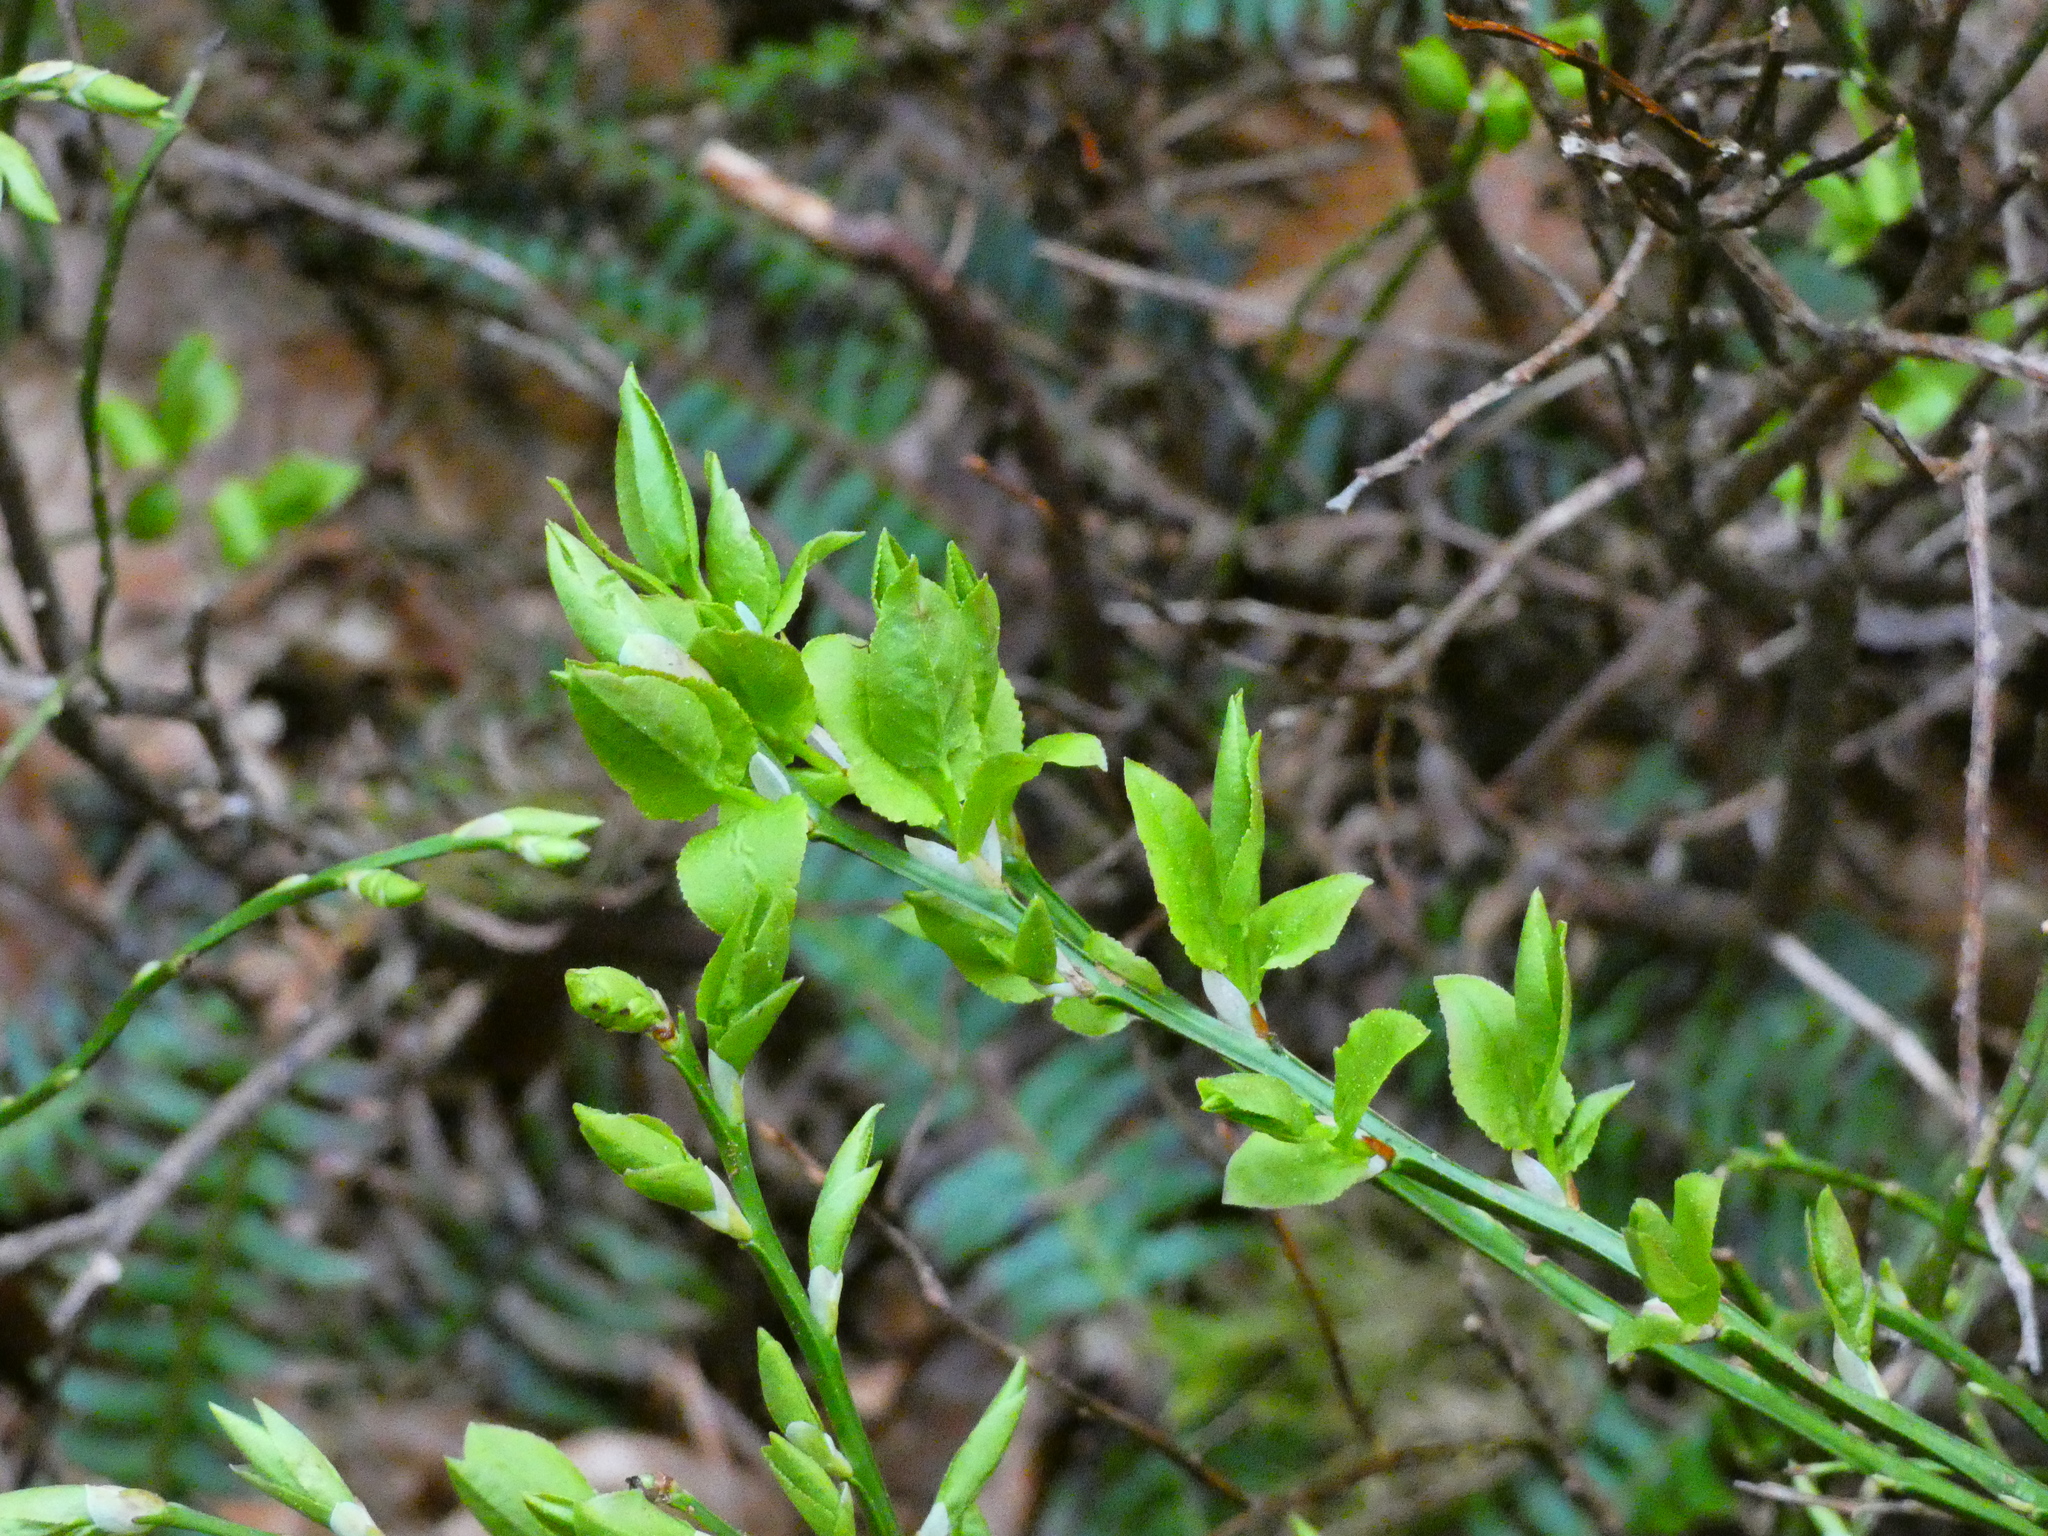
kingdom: Plantae
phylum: Tracheophyta
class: Magnoliopsida
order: Ericales
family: Ericaceae
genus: Vaccinium
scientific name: Vaccinium myrtillus
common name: Bilberry
